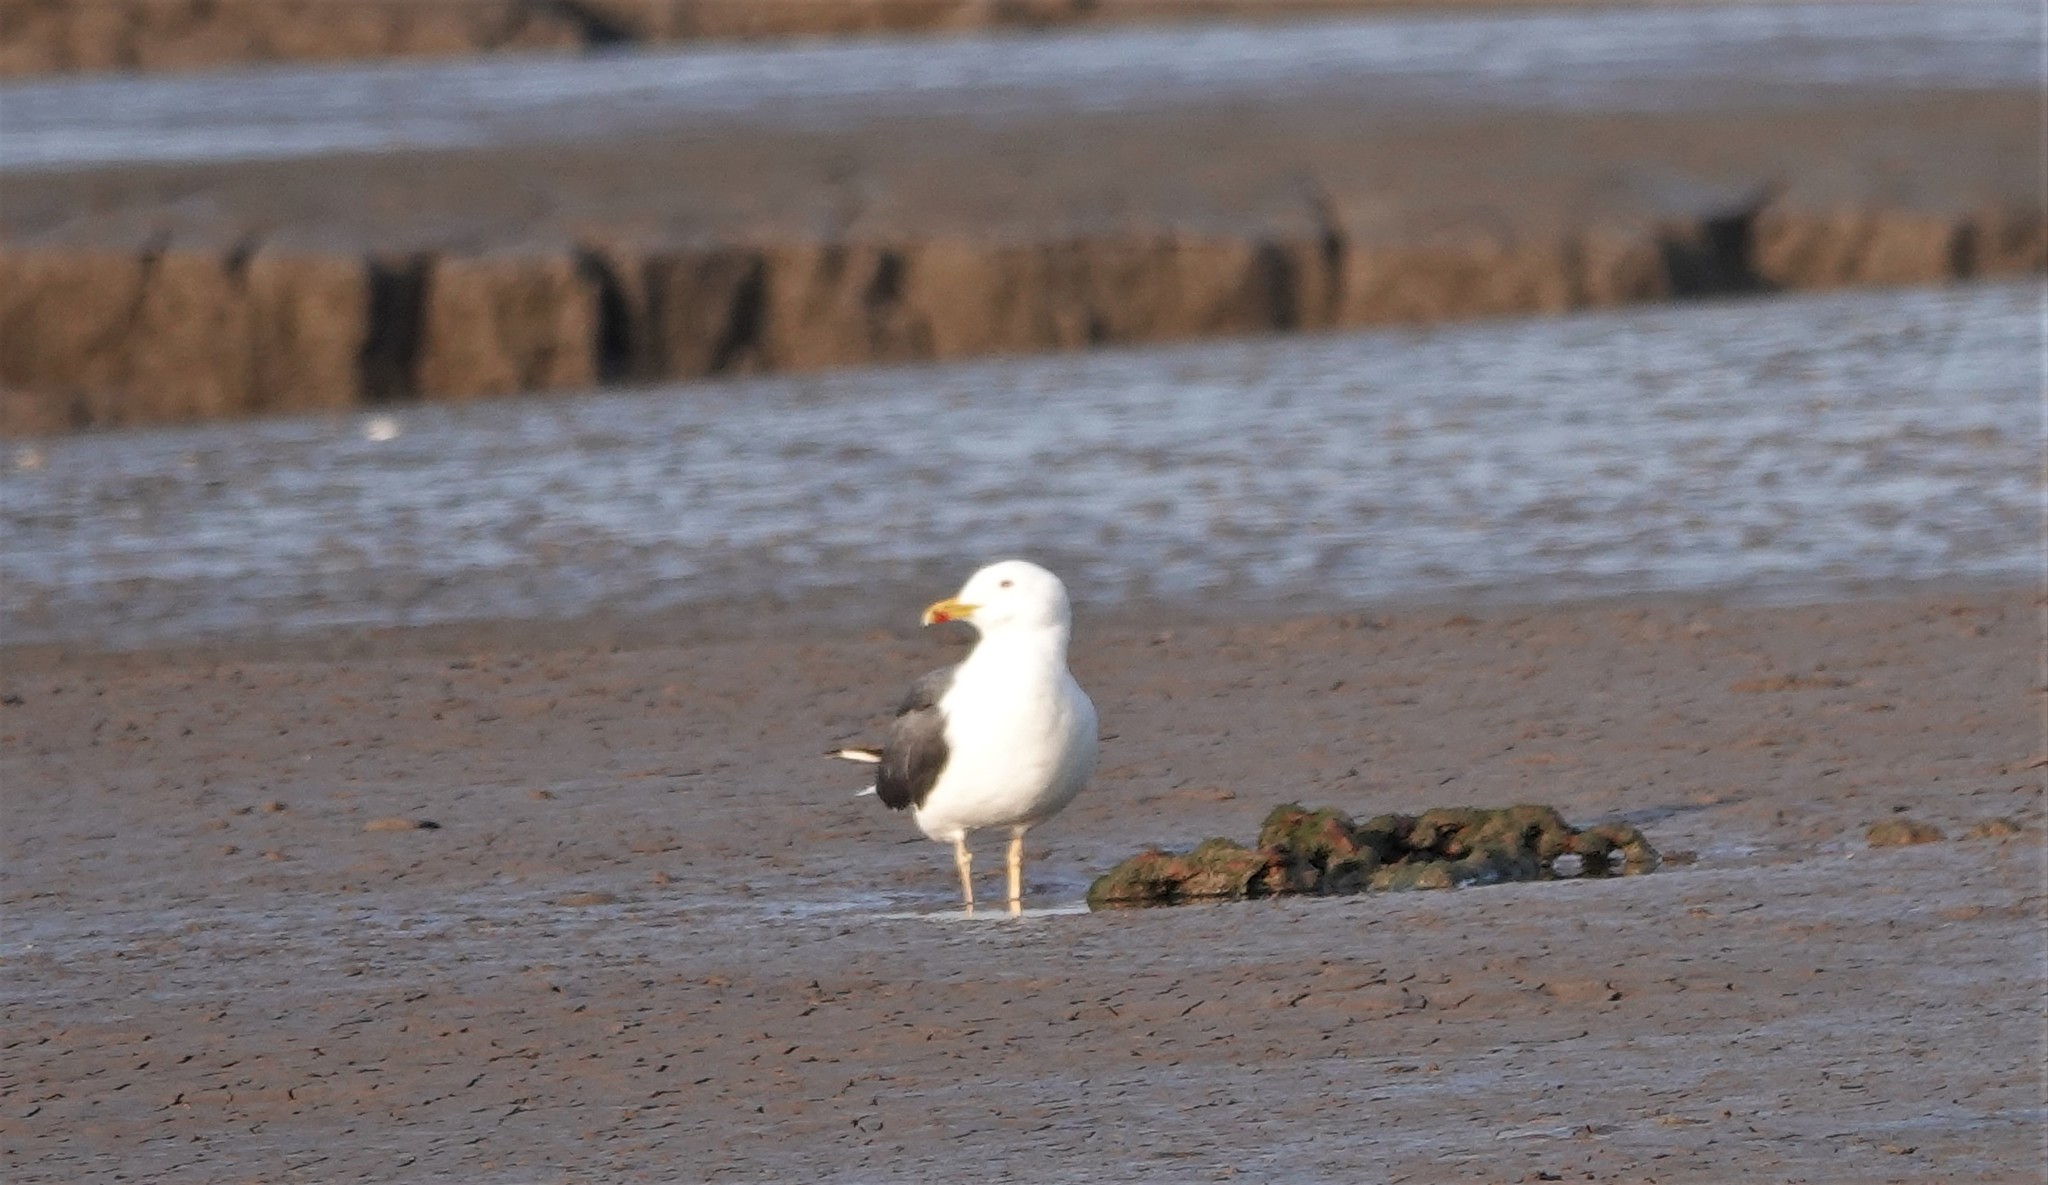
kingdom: Animalia
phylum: Chordata
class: Aves
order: Charadriiformes
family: Laridae
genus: Larus
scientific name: Larus fuscus
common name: Lesser black-backed gull
